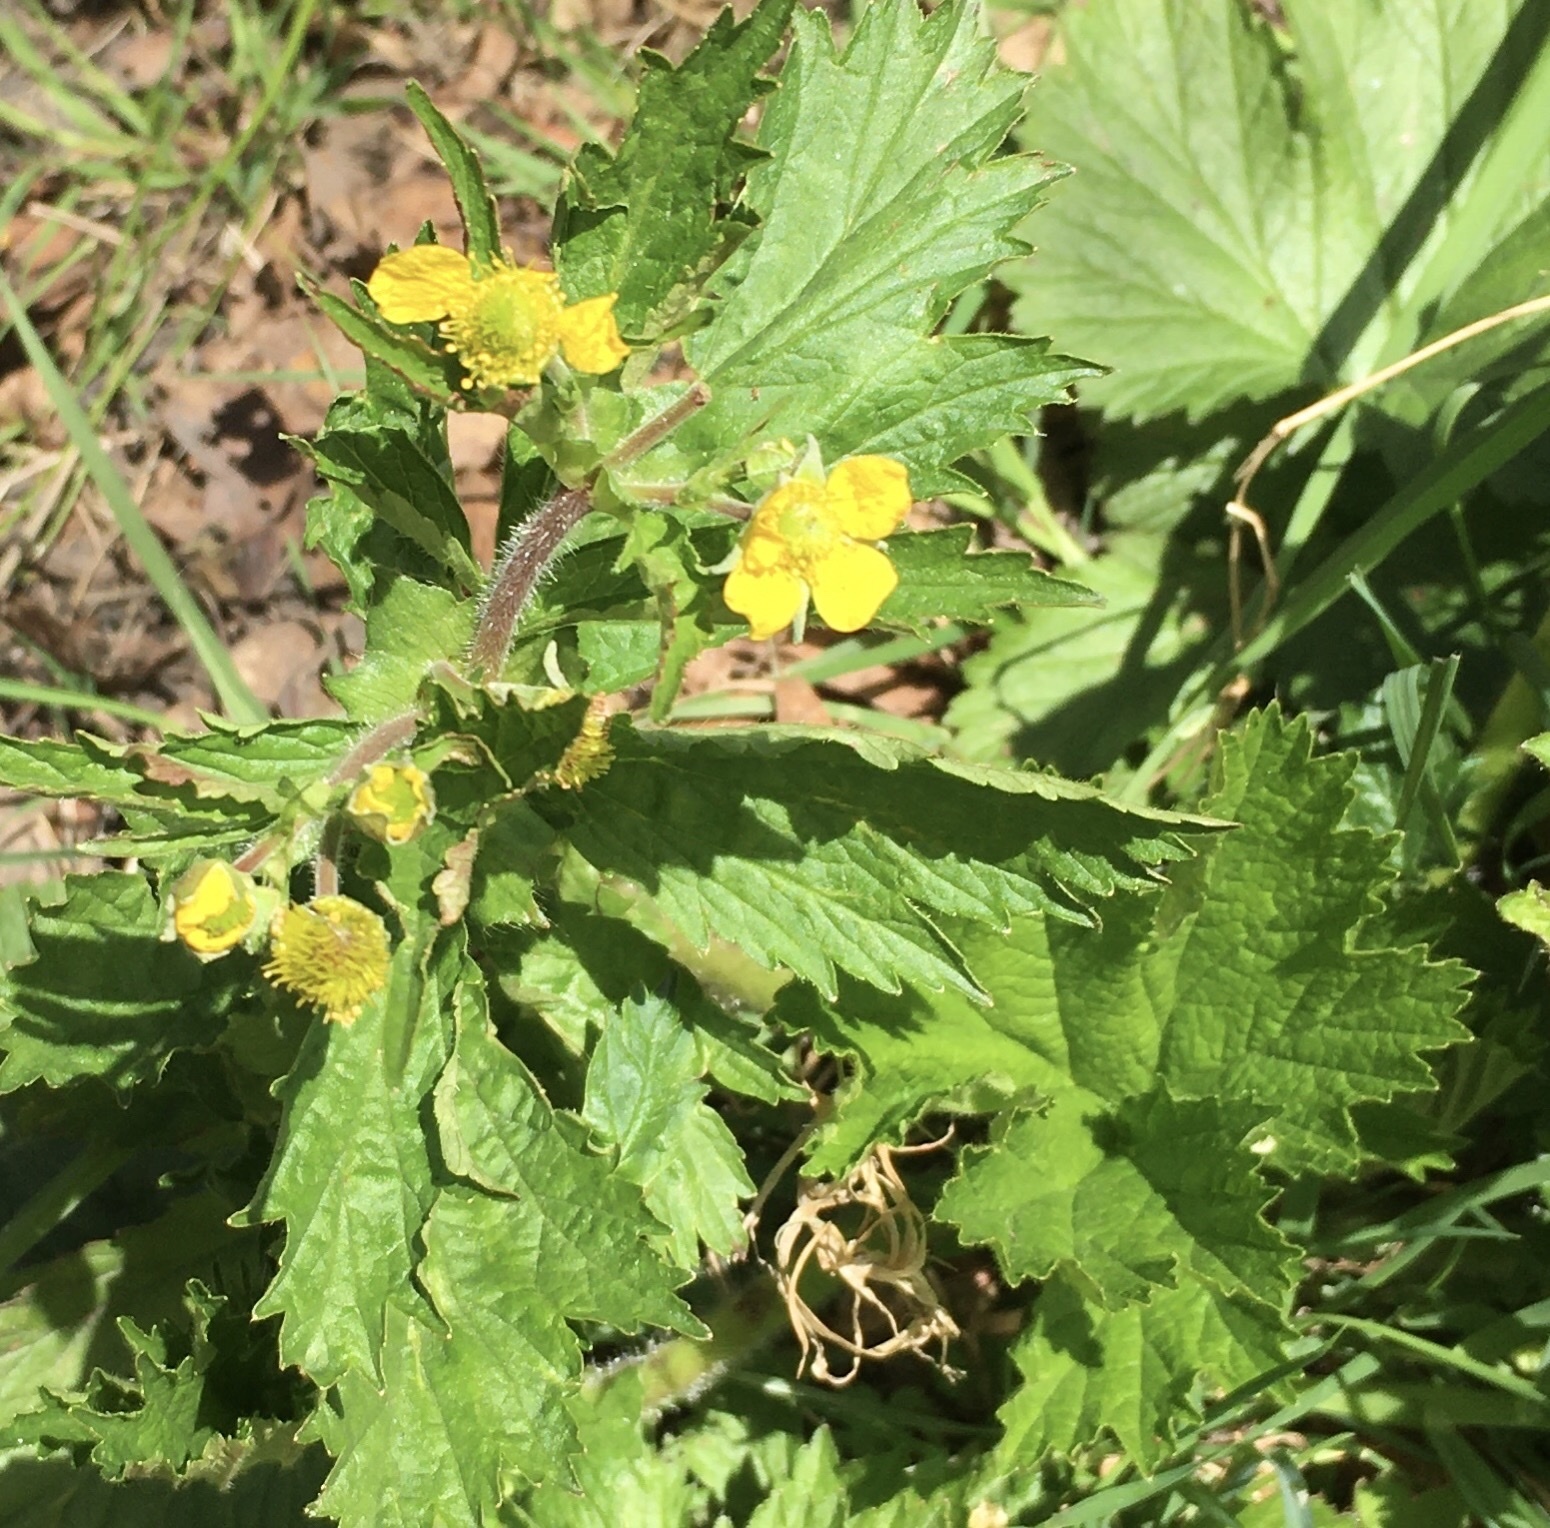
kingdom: Plantae
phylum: Tracheophyta
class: Magnoliopsida
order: Rosales
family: Rosaceae
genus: Geum
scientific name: Geum urbanum
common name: Wood avens
